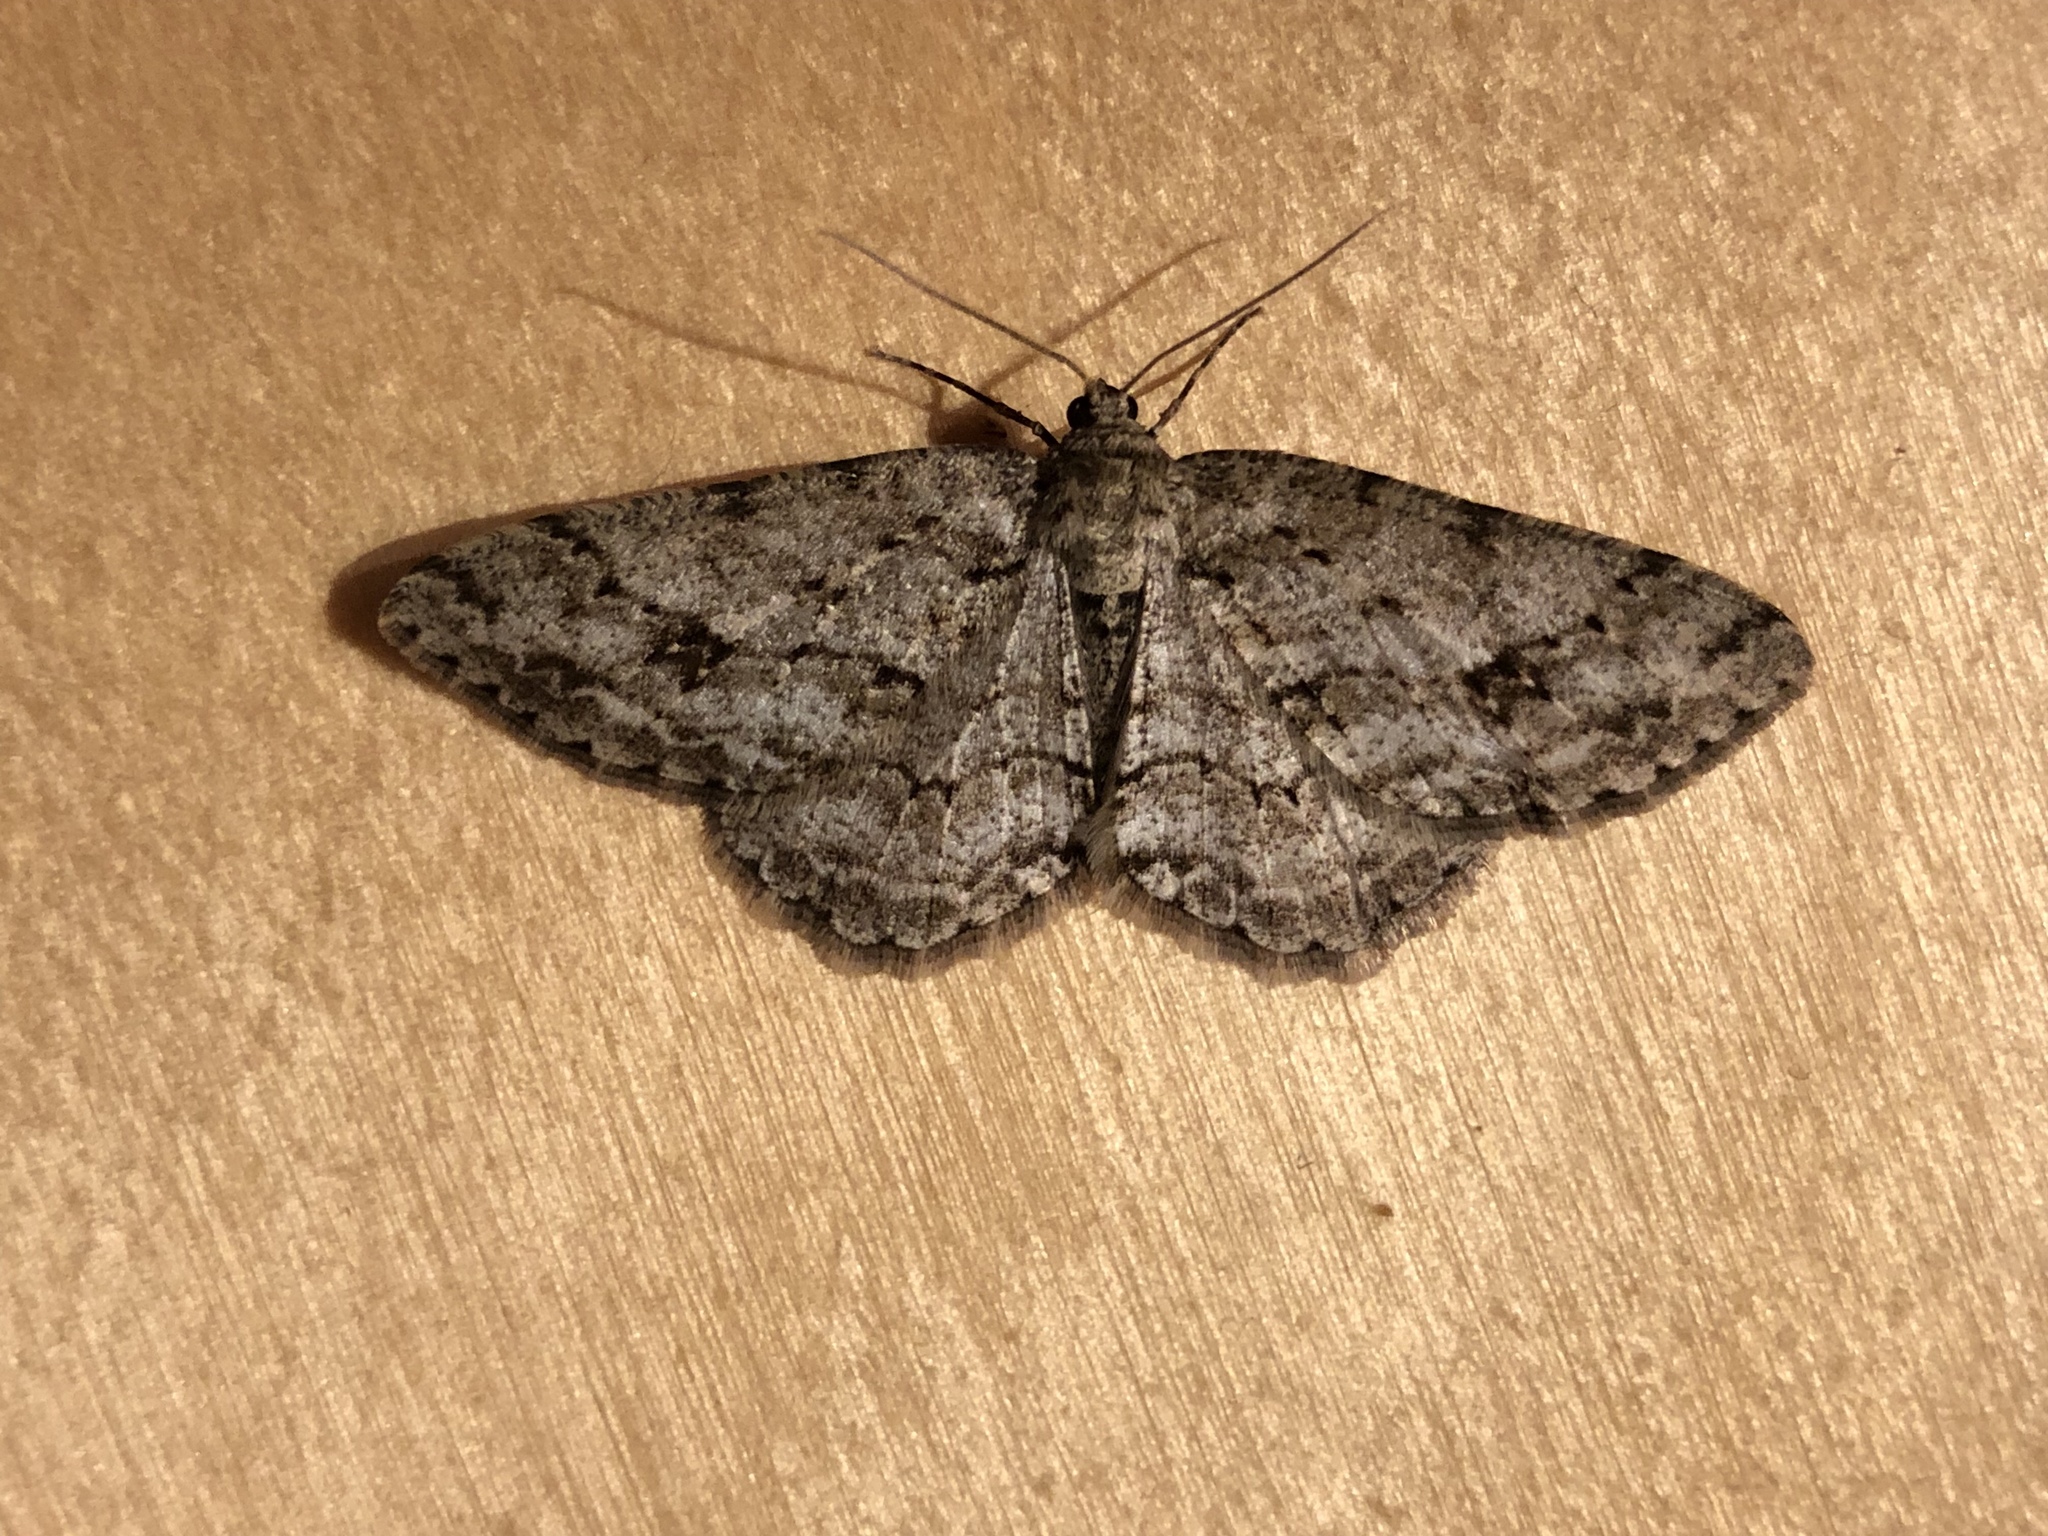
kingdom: Animalia
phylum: Arthropoda
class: Insecta
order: Lepidoptera
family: Geometridae
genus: Ectropis
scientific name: Ectropis crepuscularia
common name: Engrailed
